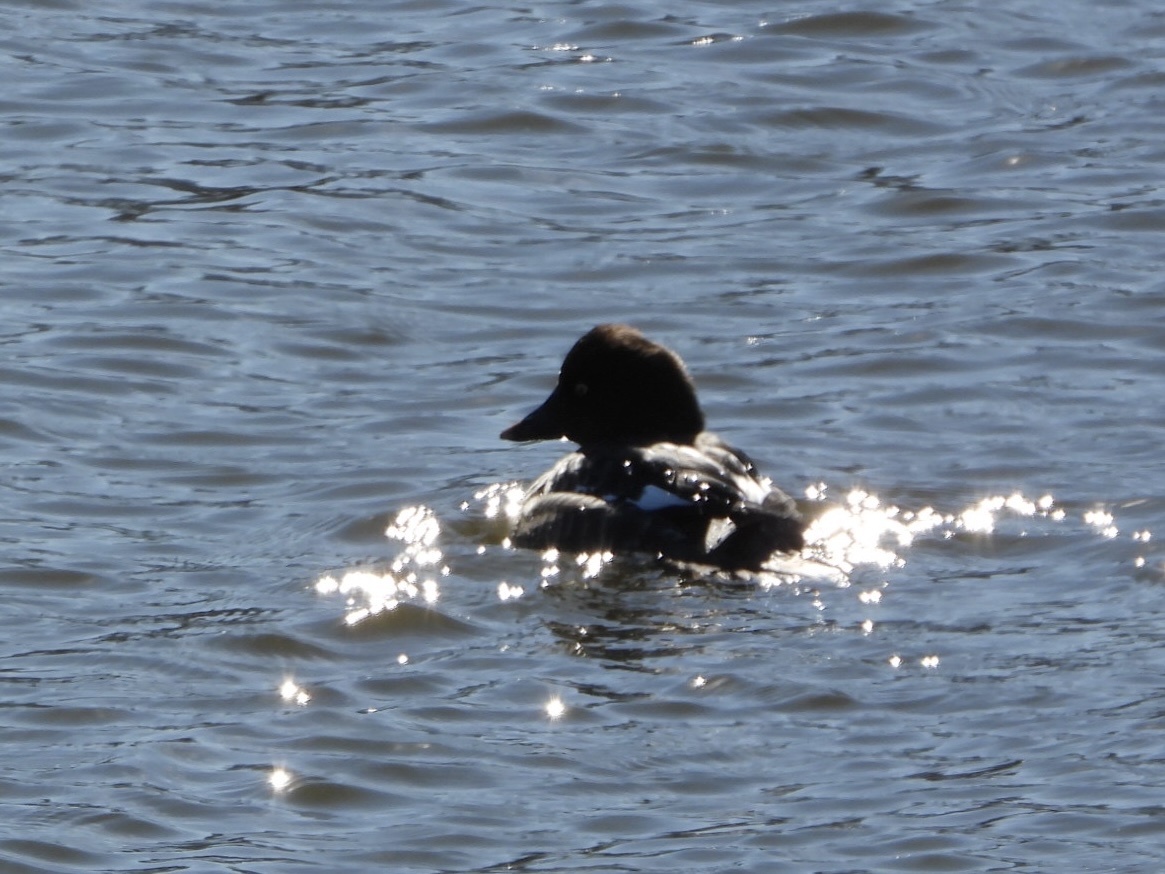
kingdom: Animalia
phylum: Chordata
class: Aves
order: Anseriformes
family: Anatidae
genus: Bucephala
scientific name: Bucephala clangula
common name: Common goldeneye
